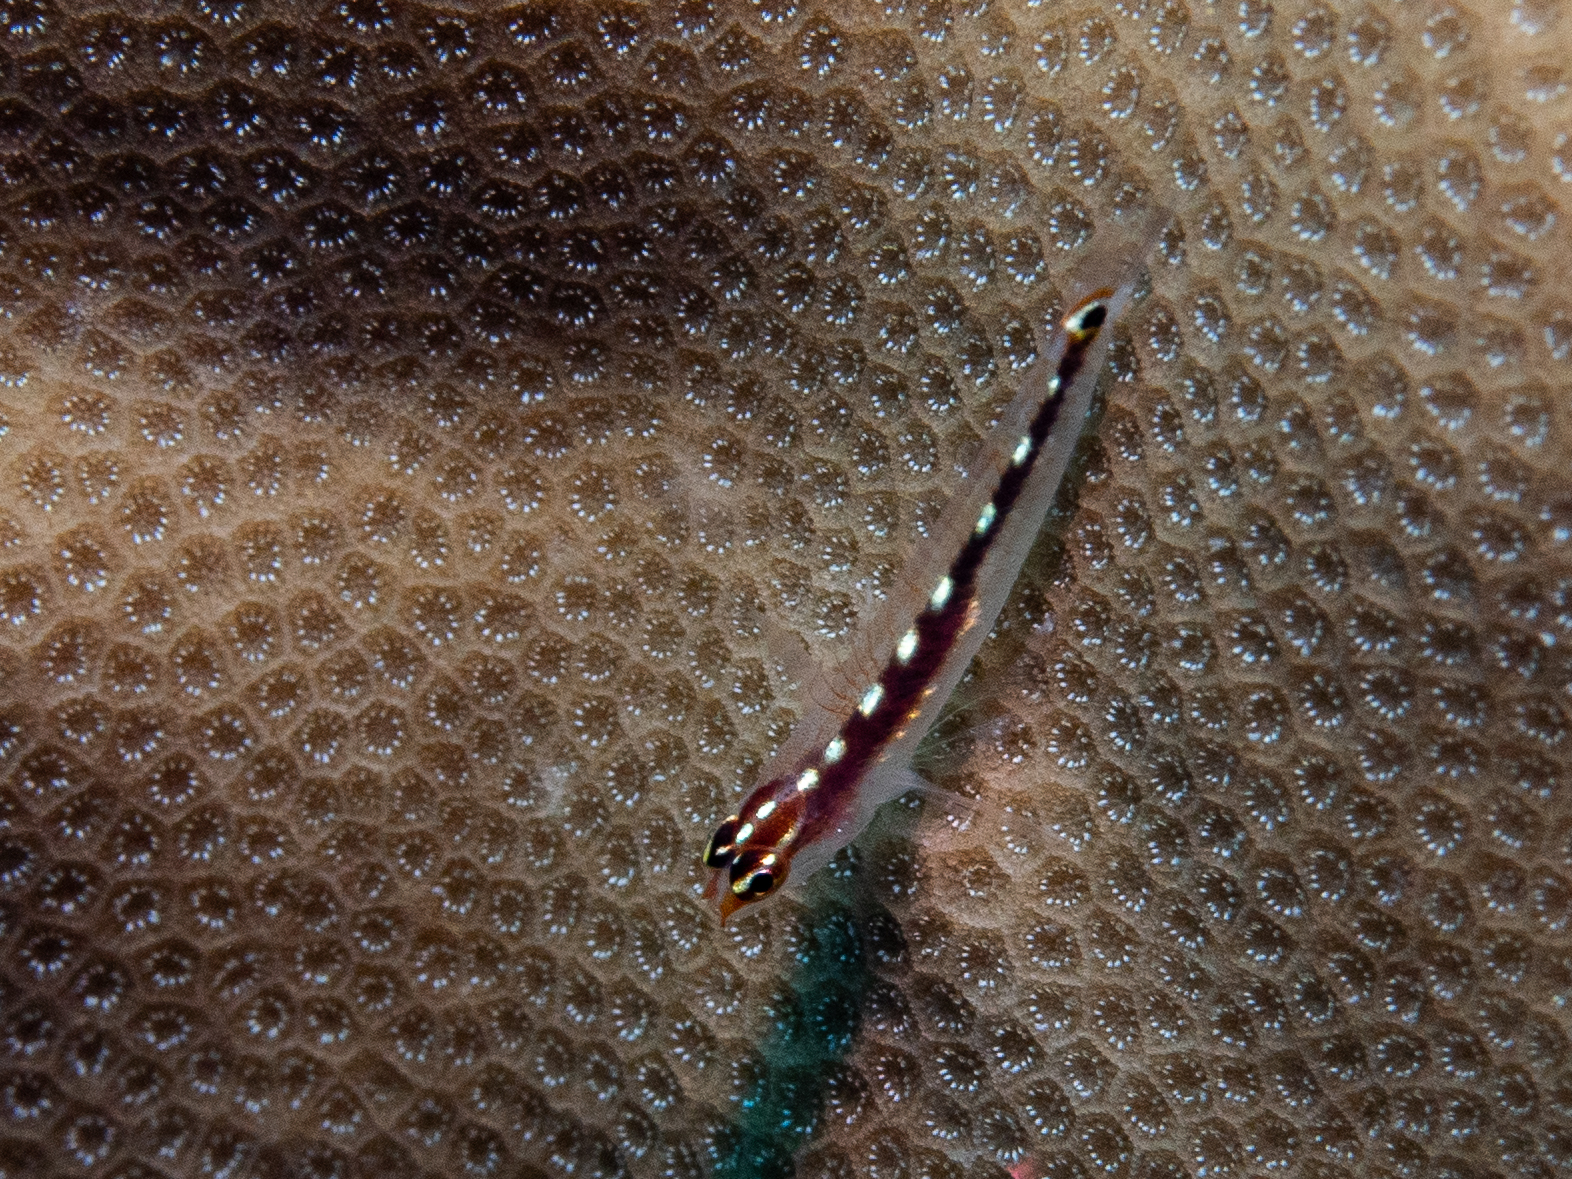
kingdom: Animalia
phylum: Chordata
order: Perciformes
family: Gobiidae
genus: Eviota
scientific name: Eviota punyit
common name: Punyit dwarfgoby
